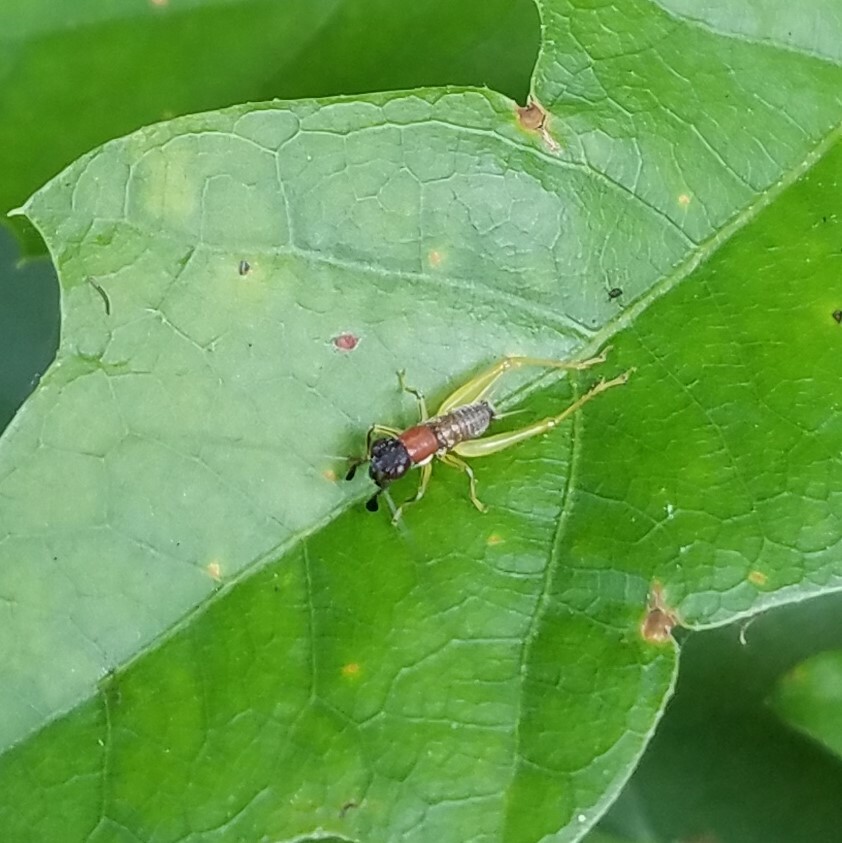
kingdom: Animalia
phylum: Arthropoda
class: Insecta
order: Orthoptera
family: Trigonidiidae
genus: Phyllopalpus
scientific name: Phyllopalpus pulchellus
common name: Handsome trig
